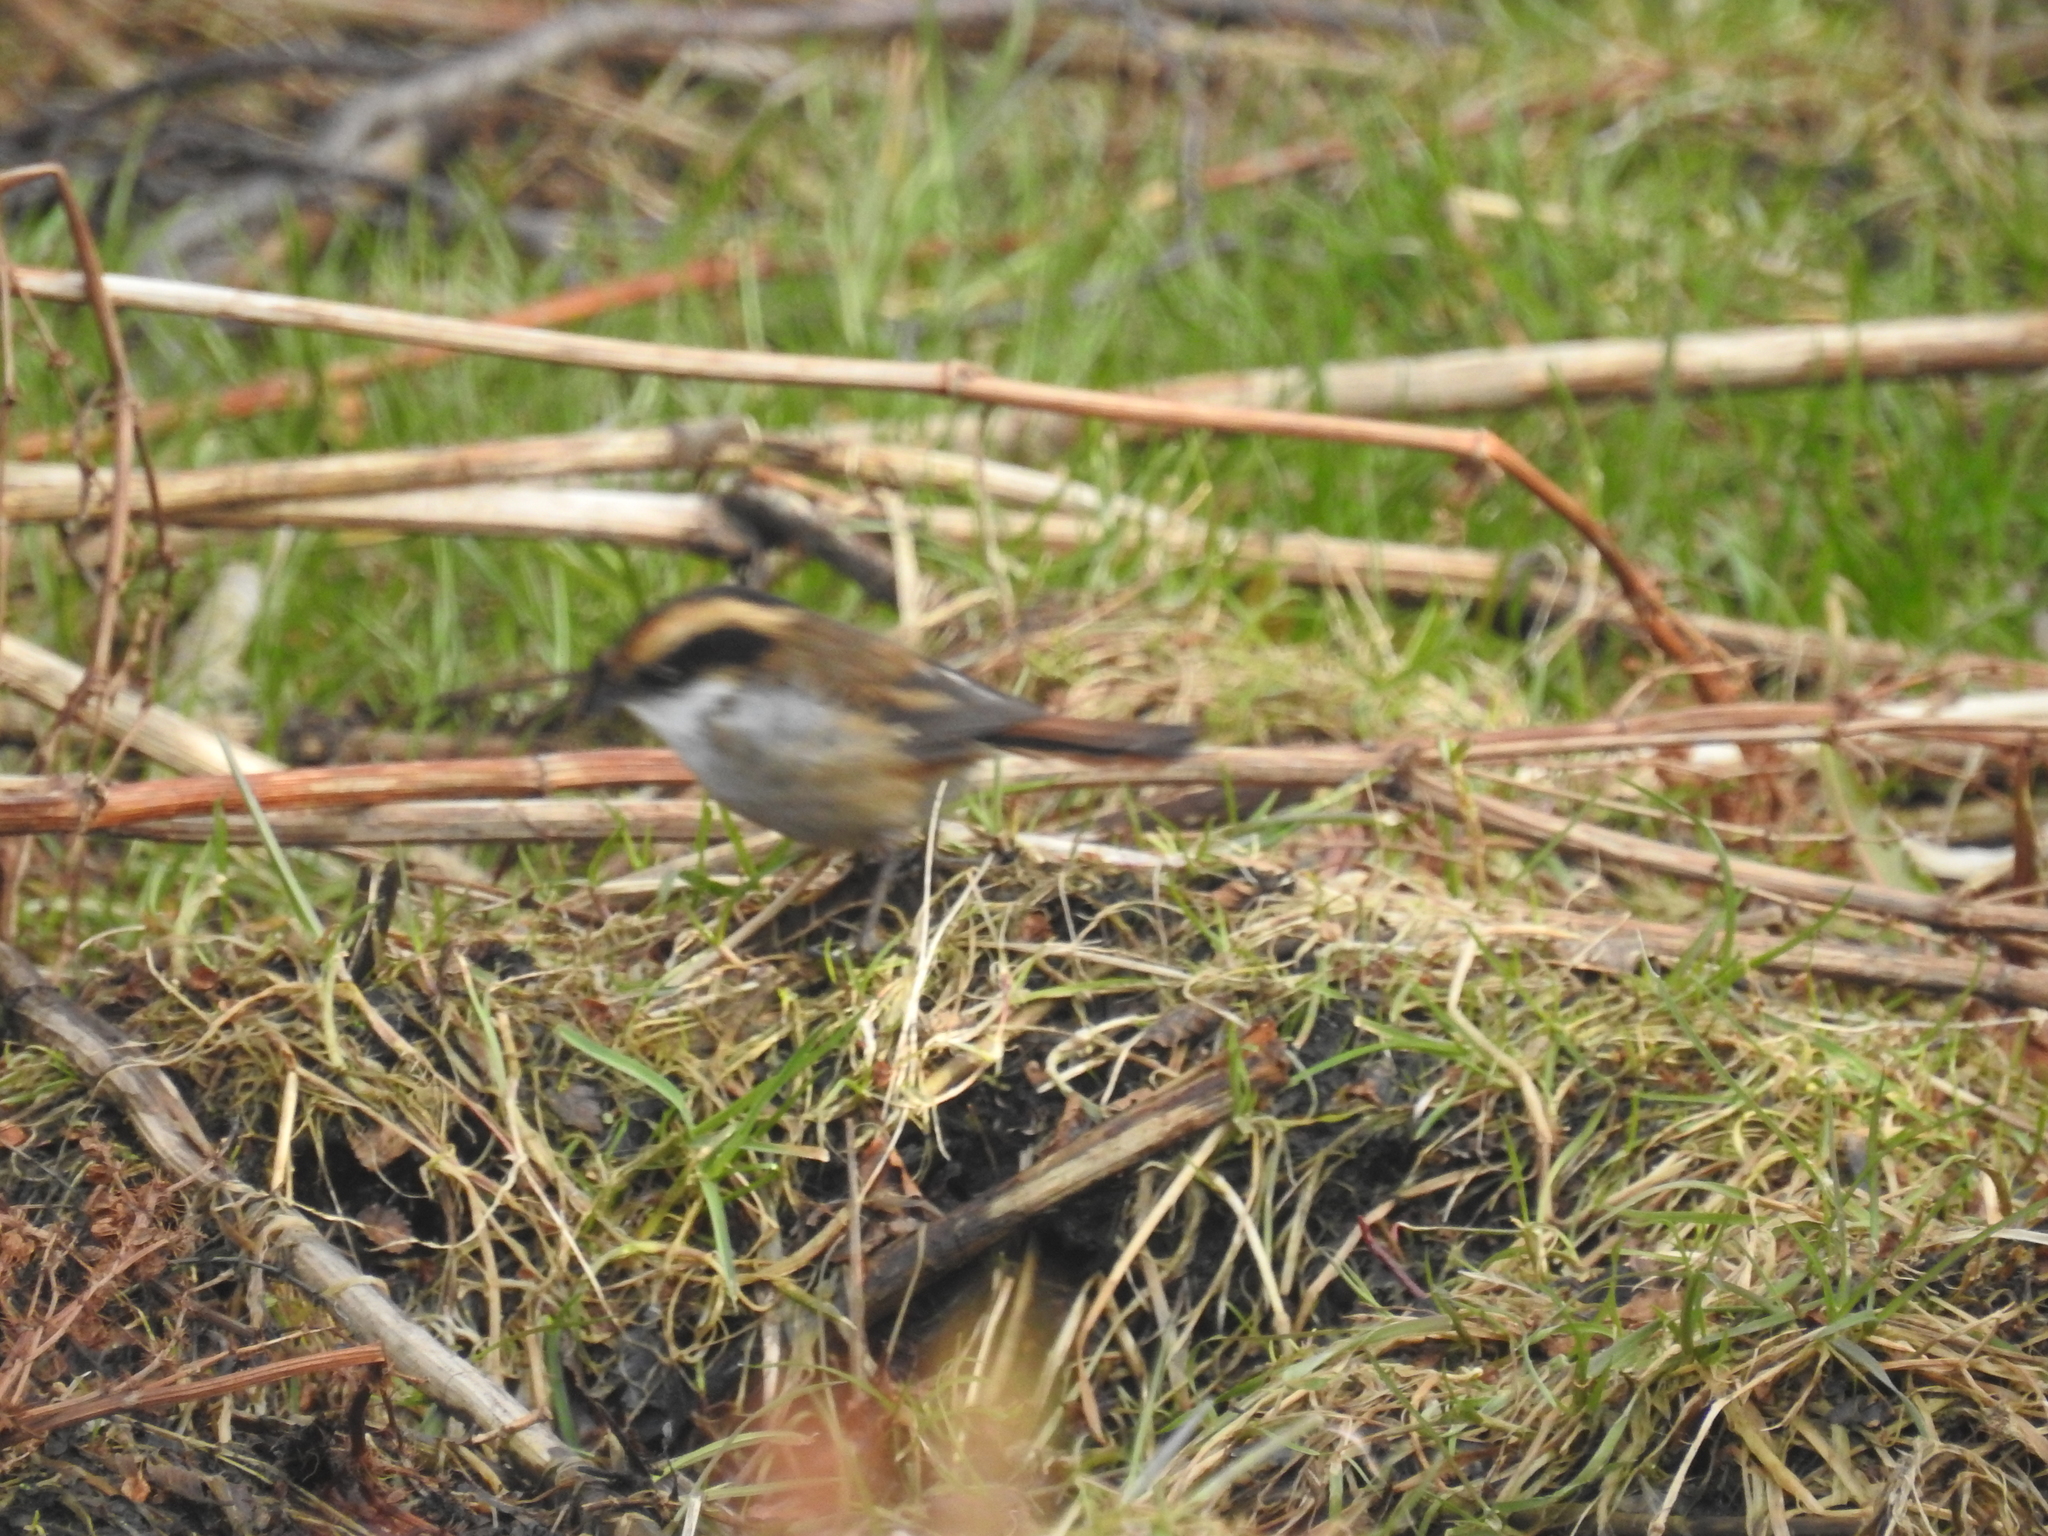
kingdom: Animalia
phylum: Chordata
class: Aves
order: Passeriformes
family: Furnariidae
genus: Aphrastura
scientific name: Aphrastura spinicauda
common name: Thorn-tailed rayadito
